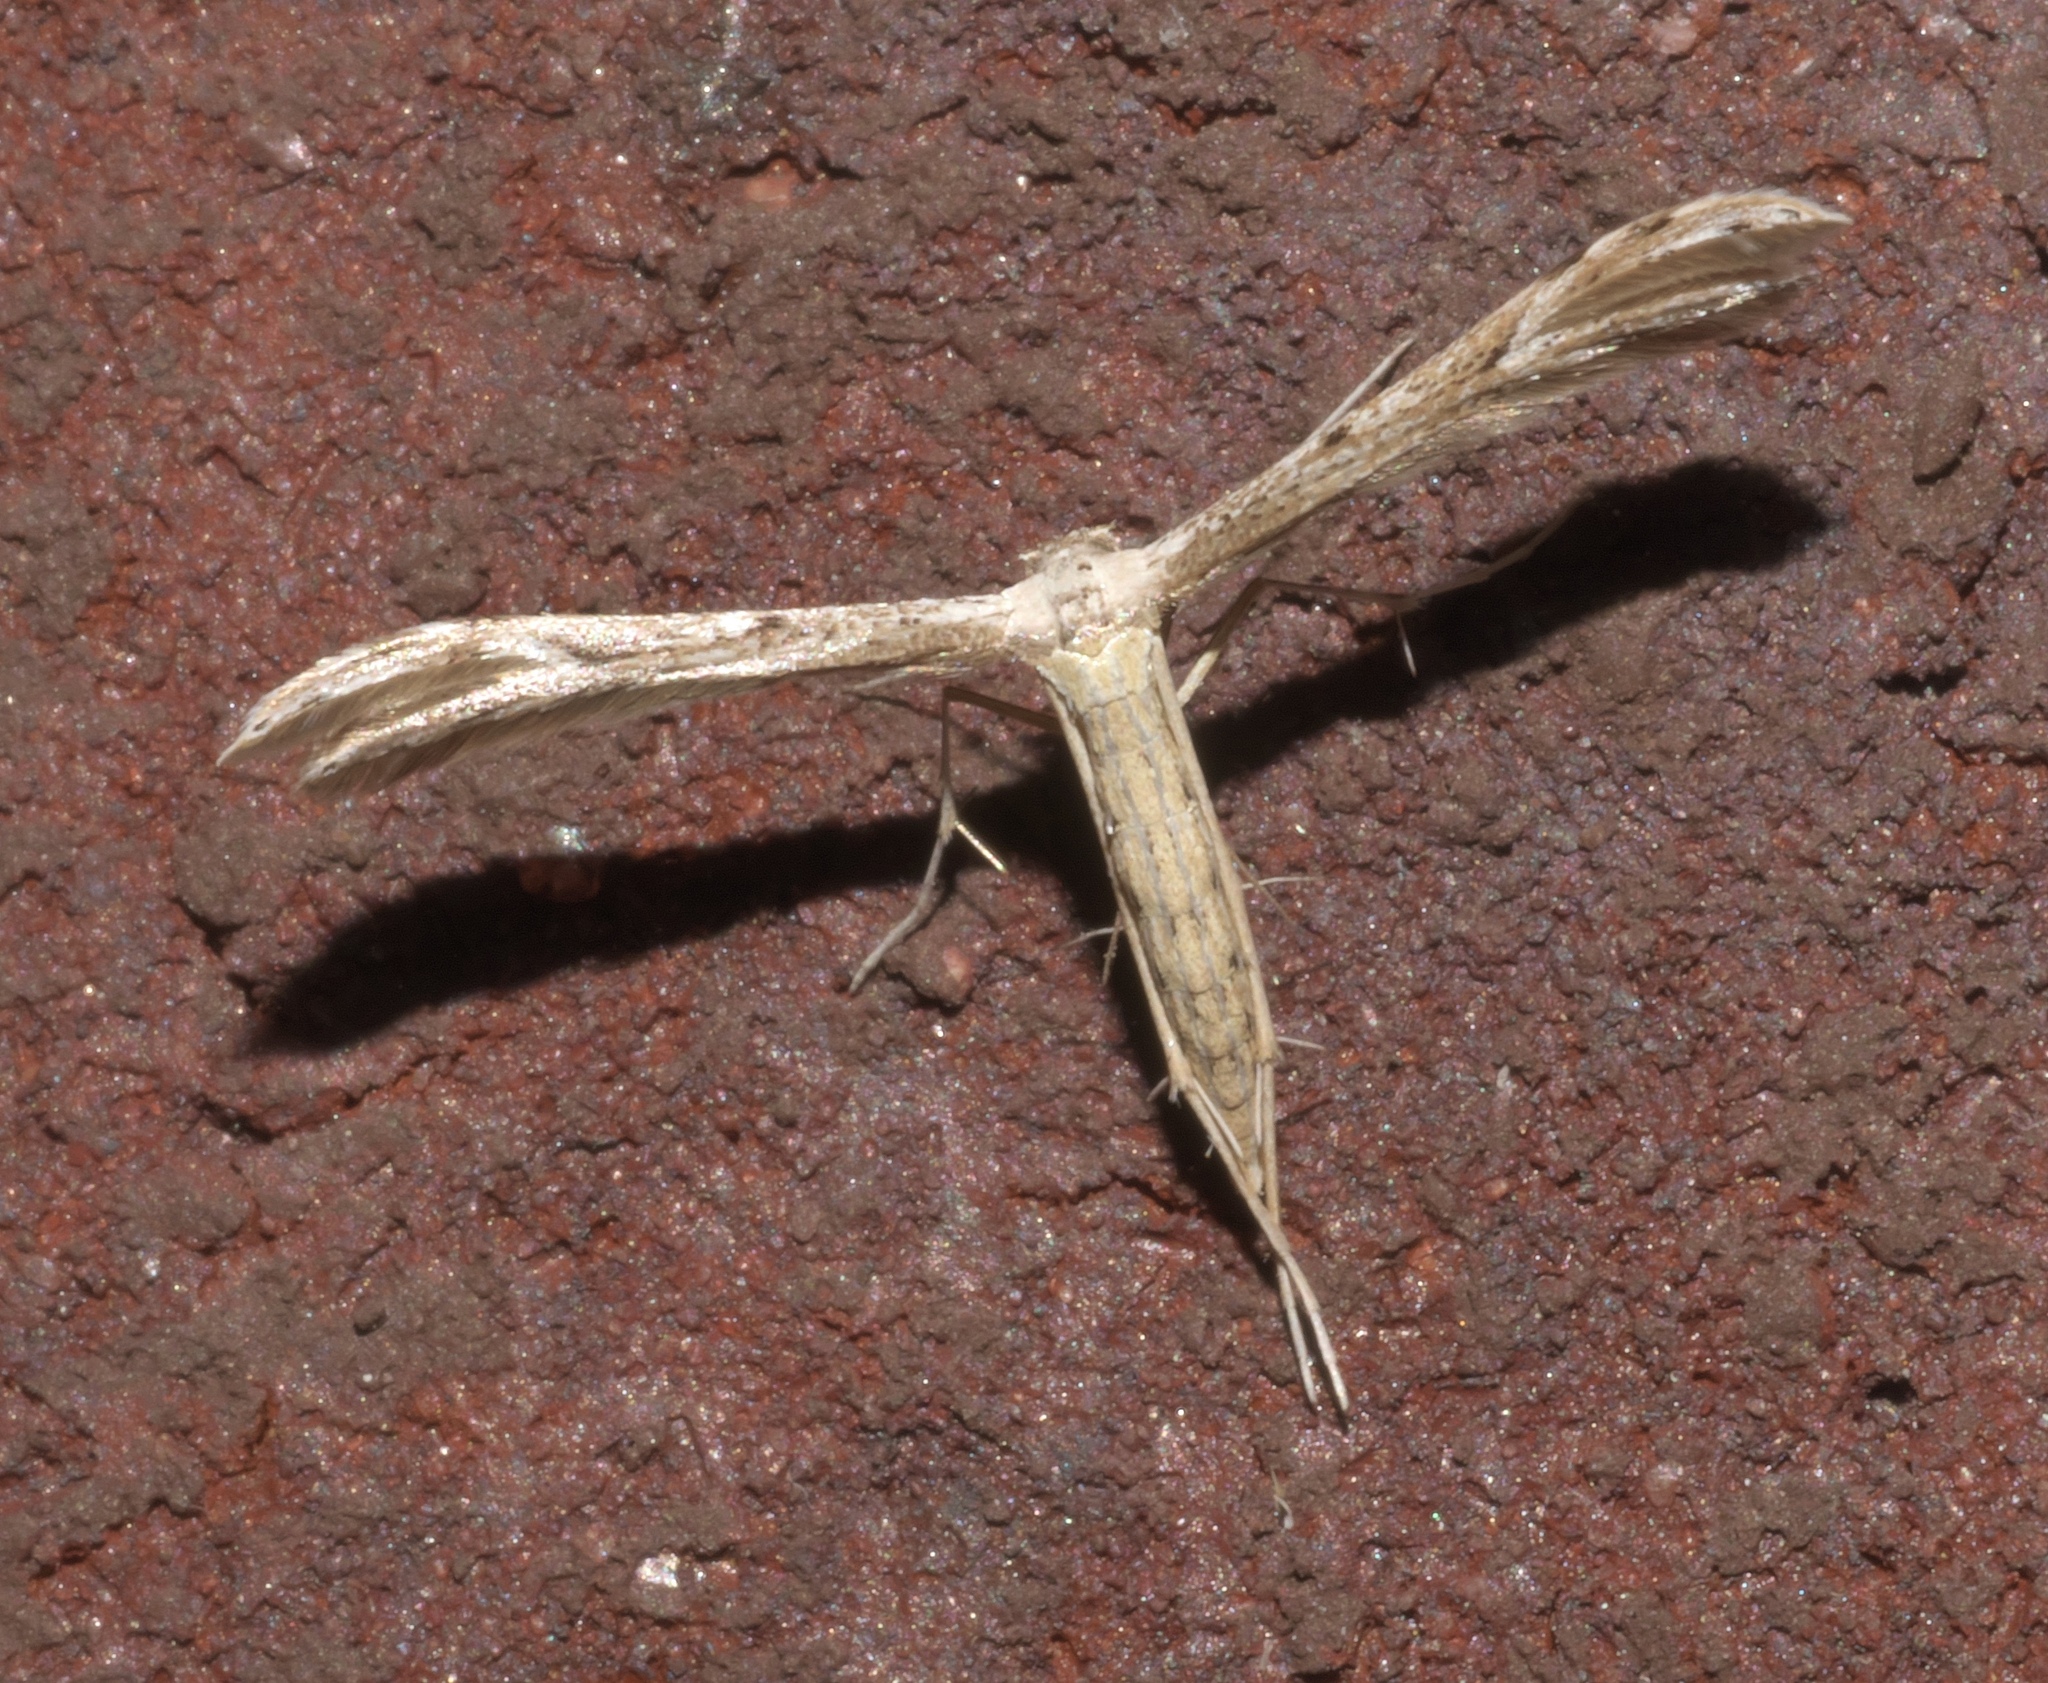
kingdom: Animalia
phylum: Arthropoda
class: Insecta
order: Lepidoptera
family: Pterophoridae
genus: Pselnophorus
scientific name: Pselnophorus belfragei
